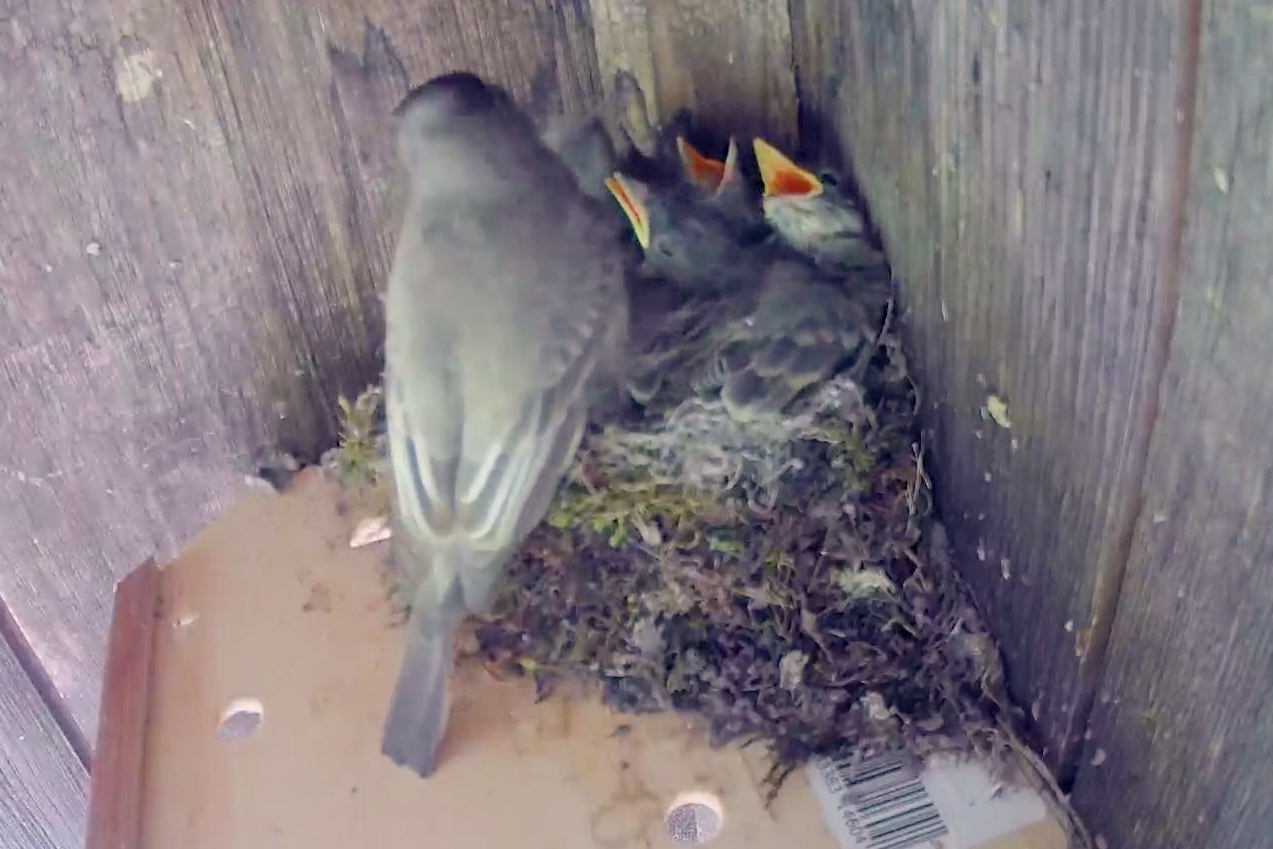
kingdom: Animalia
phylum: Chordata
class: Aves
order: Passeriformes
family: Tyrannidae
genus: Sayornis
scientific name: Sayornis phoebe
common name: Eastern phoebe
